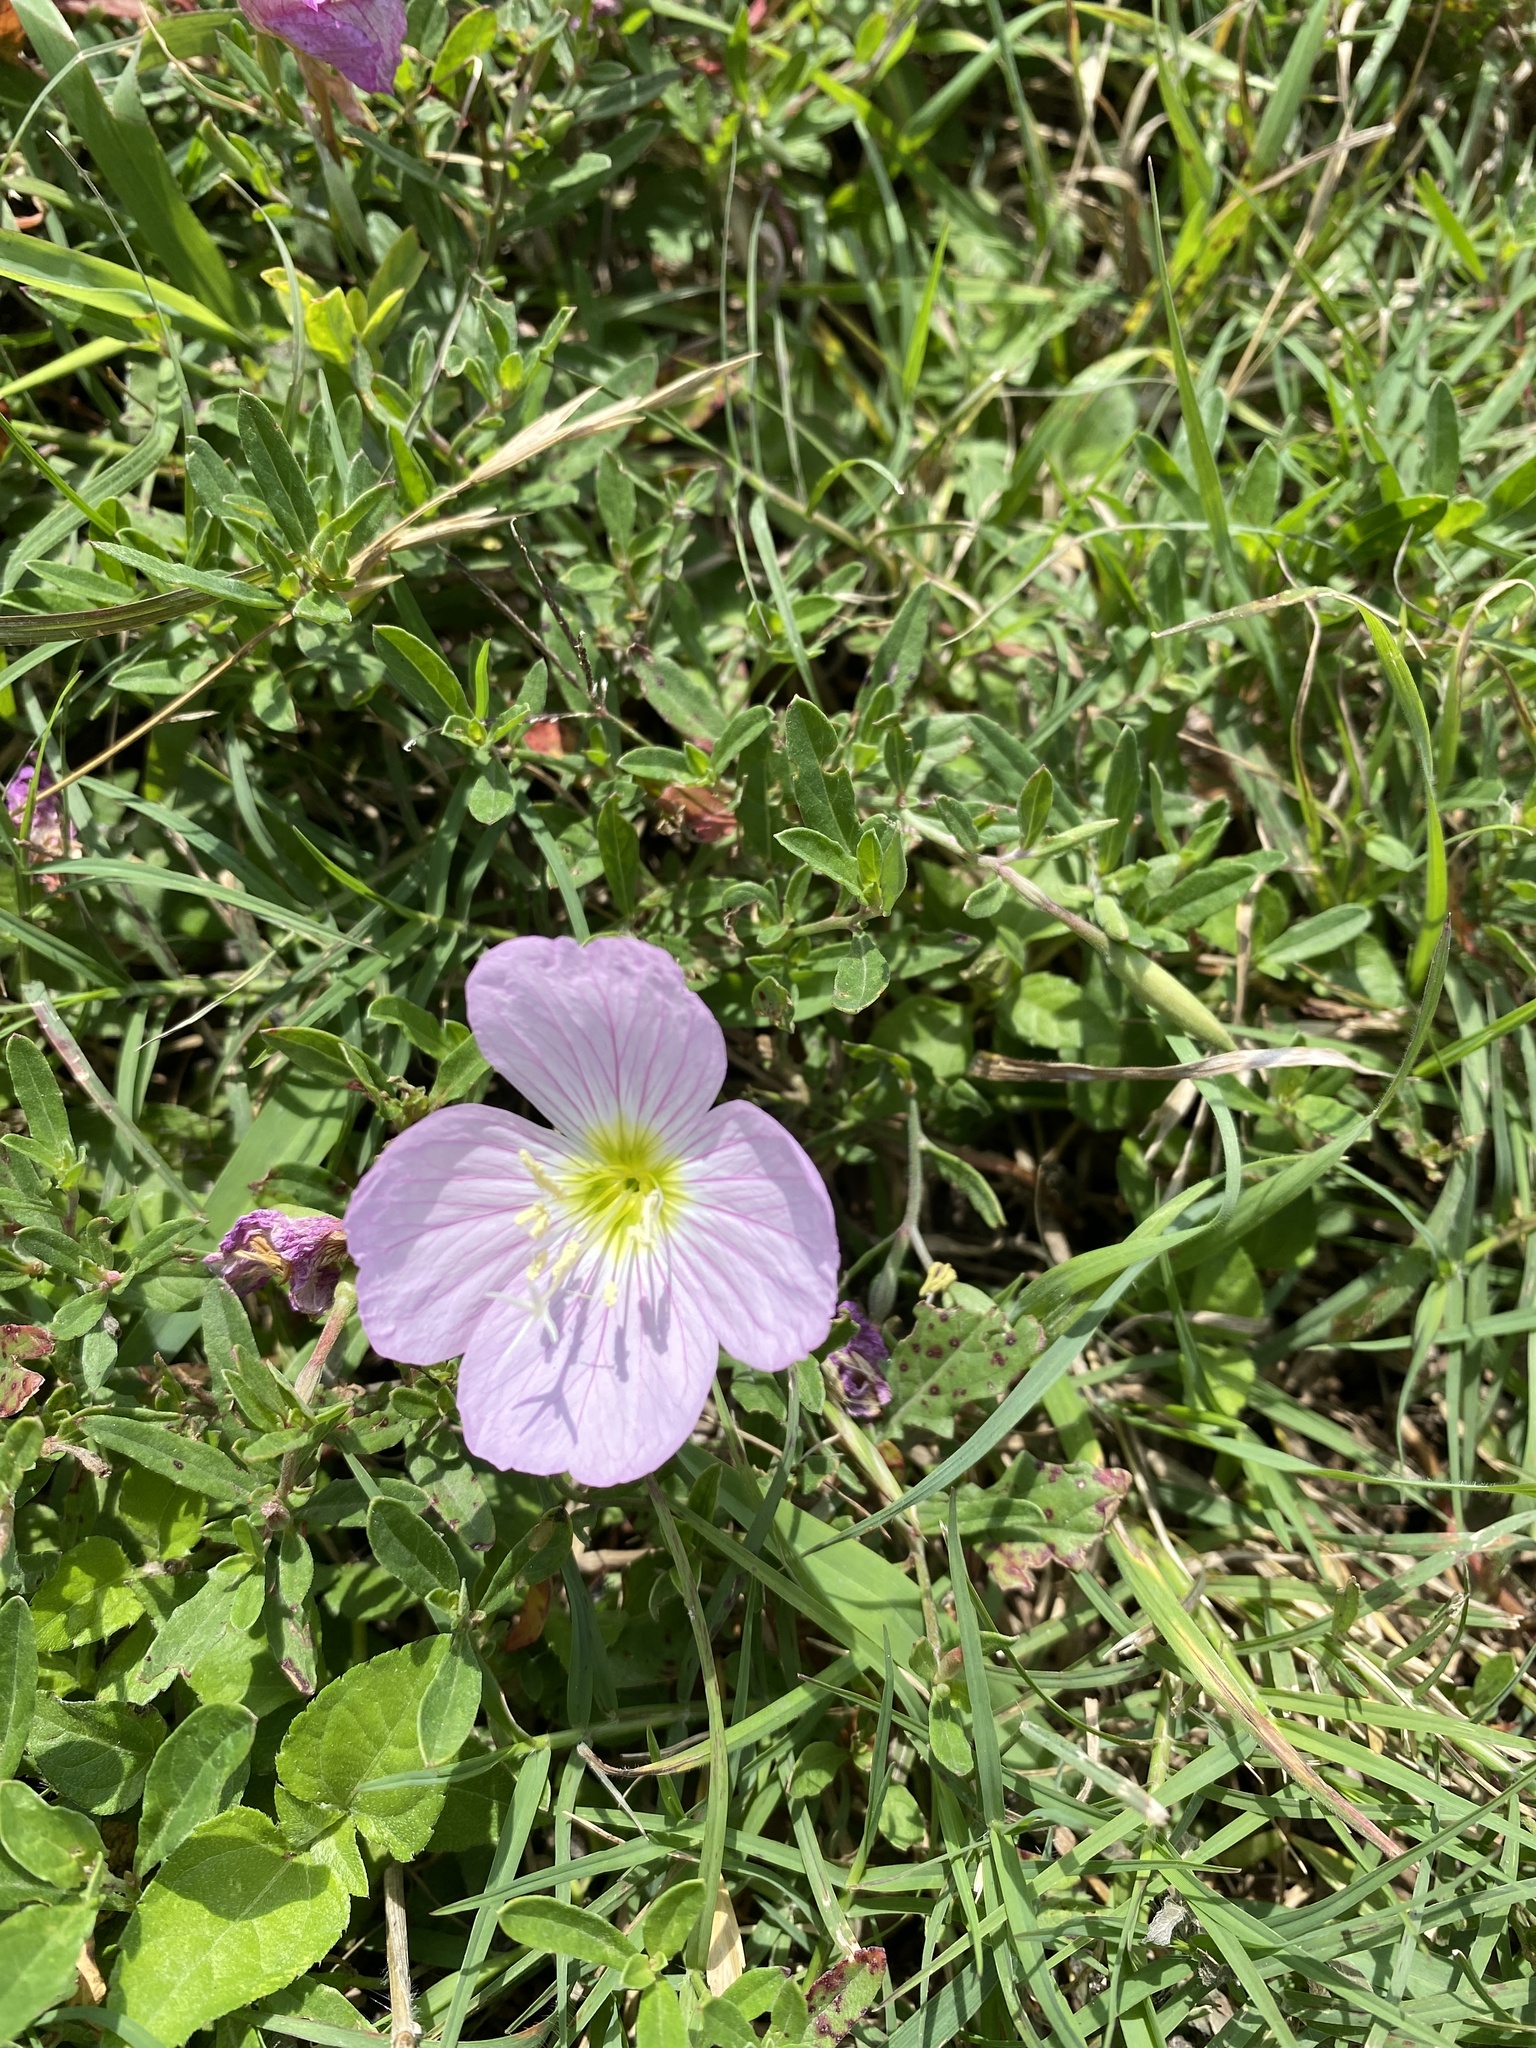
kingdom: Plantae
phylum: Tracheophyta
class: Magnoliopsida
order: Myrtales
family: Onagraceae
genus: Oenothera
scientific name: Oenothera speciosa
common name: White evening-primrose
